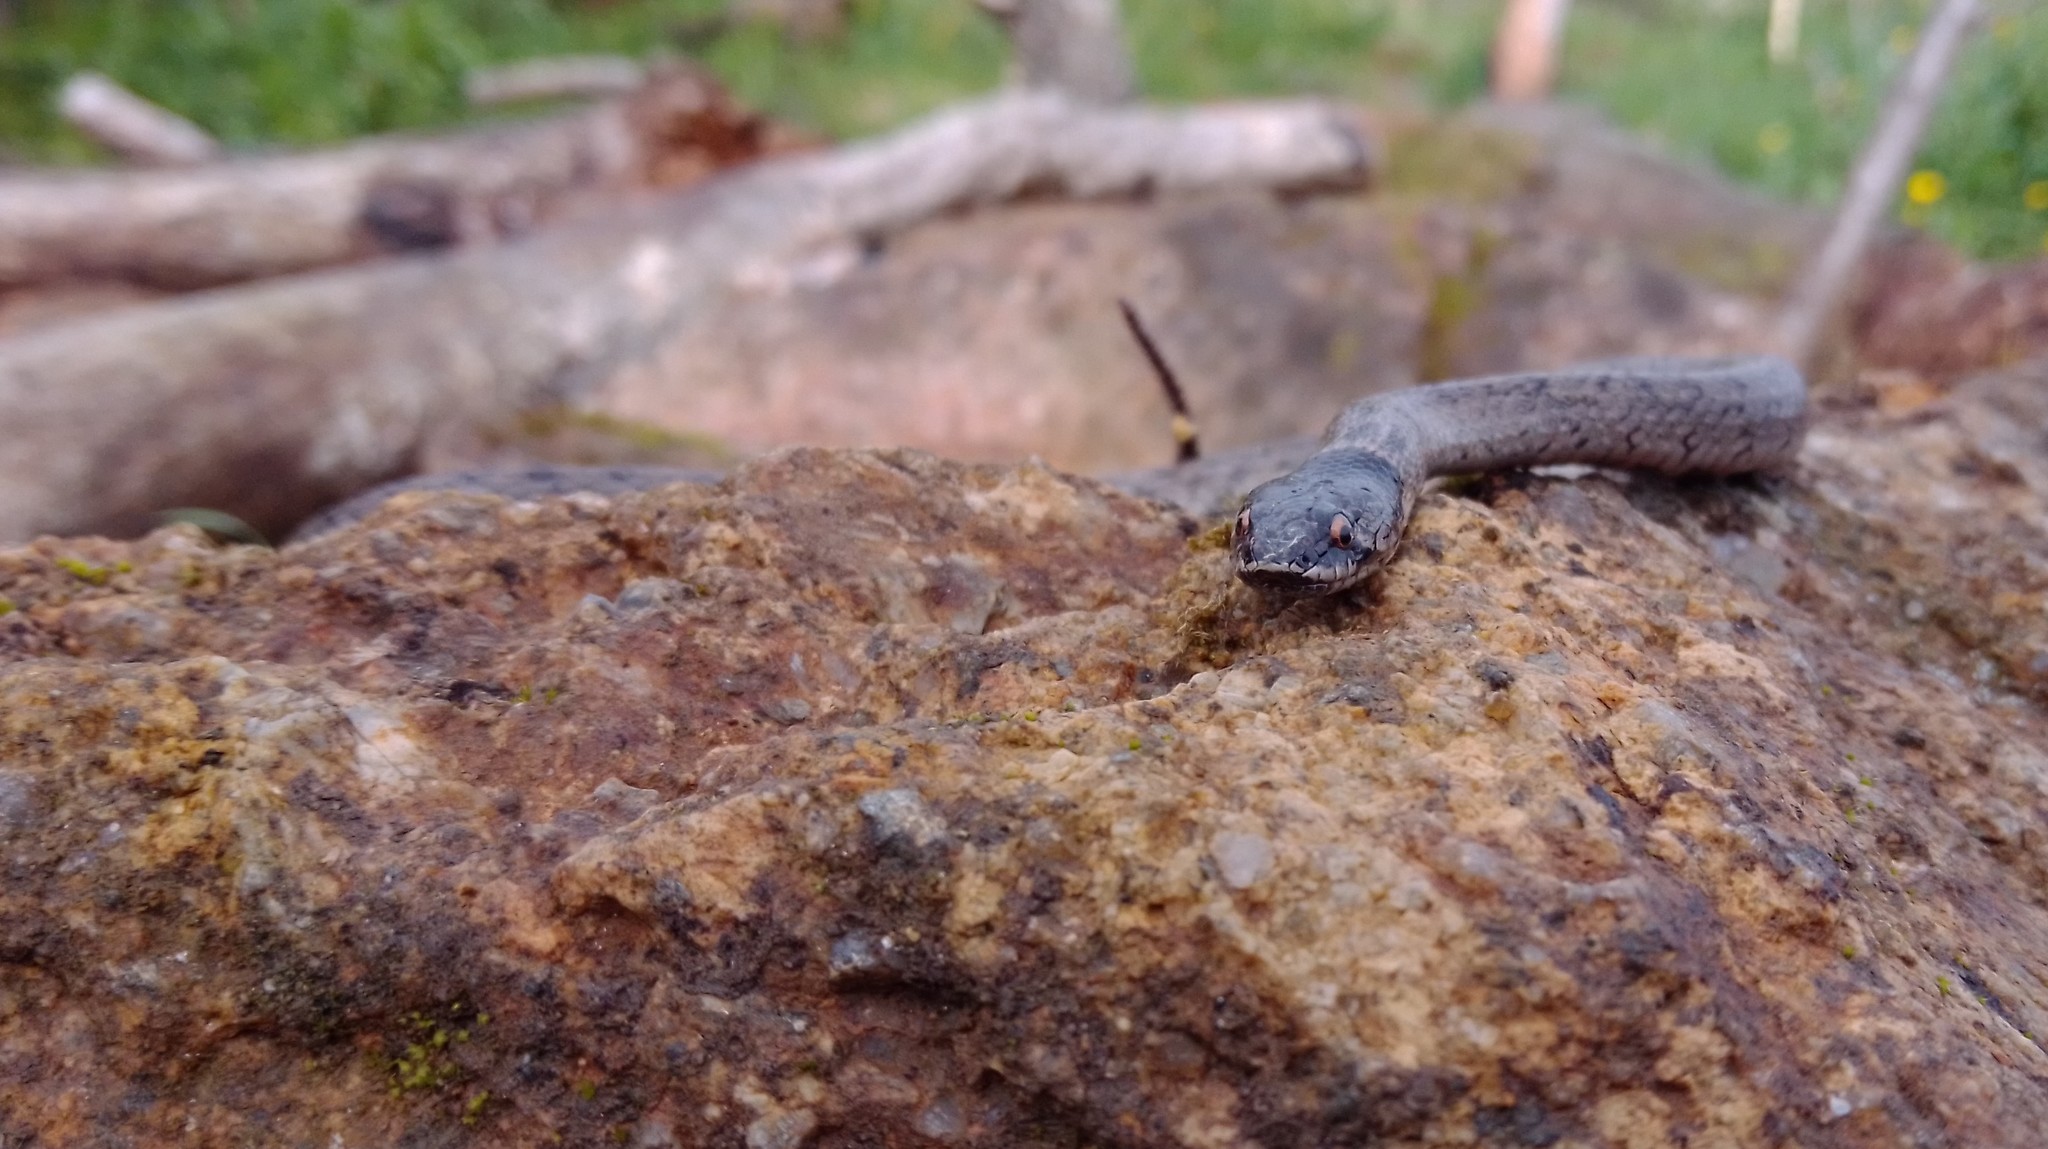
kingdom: Animalia
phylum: Chordata
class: Squamata
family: Colubridae
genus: Macroprotodon
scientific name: Macroprotodon brevis
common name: Iberian false smooth snake
